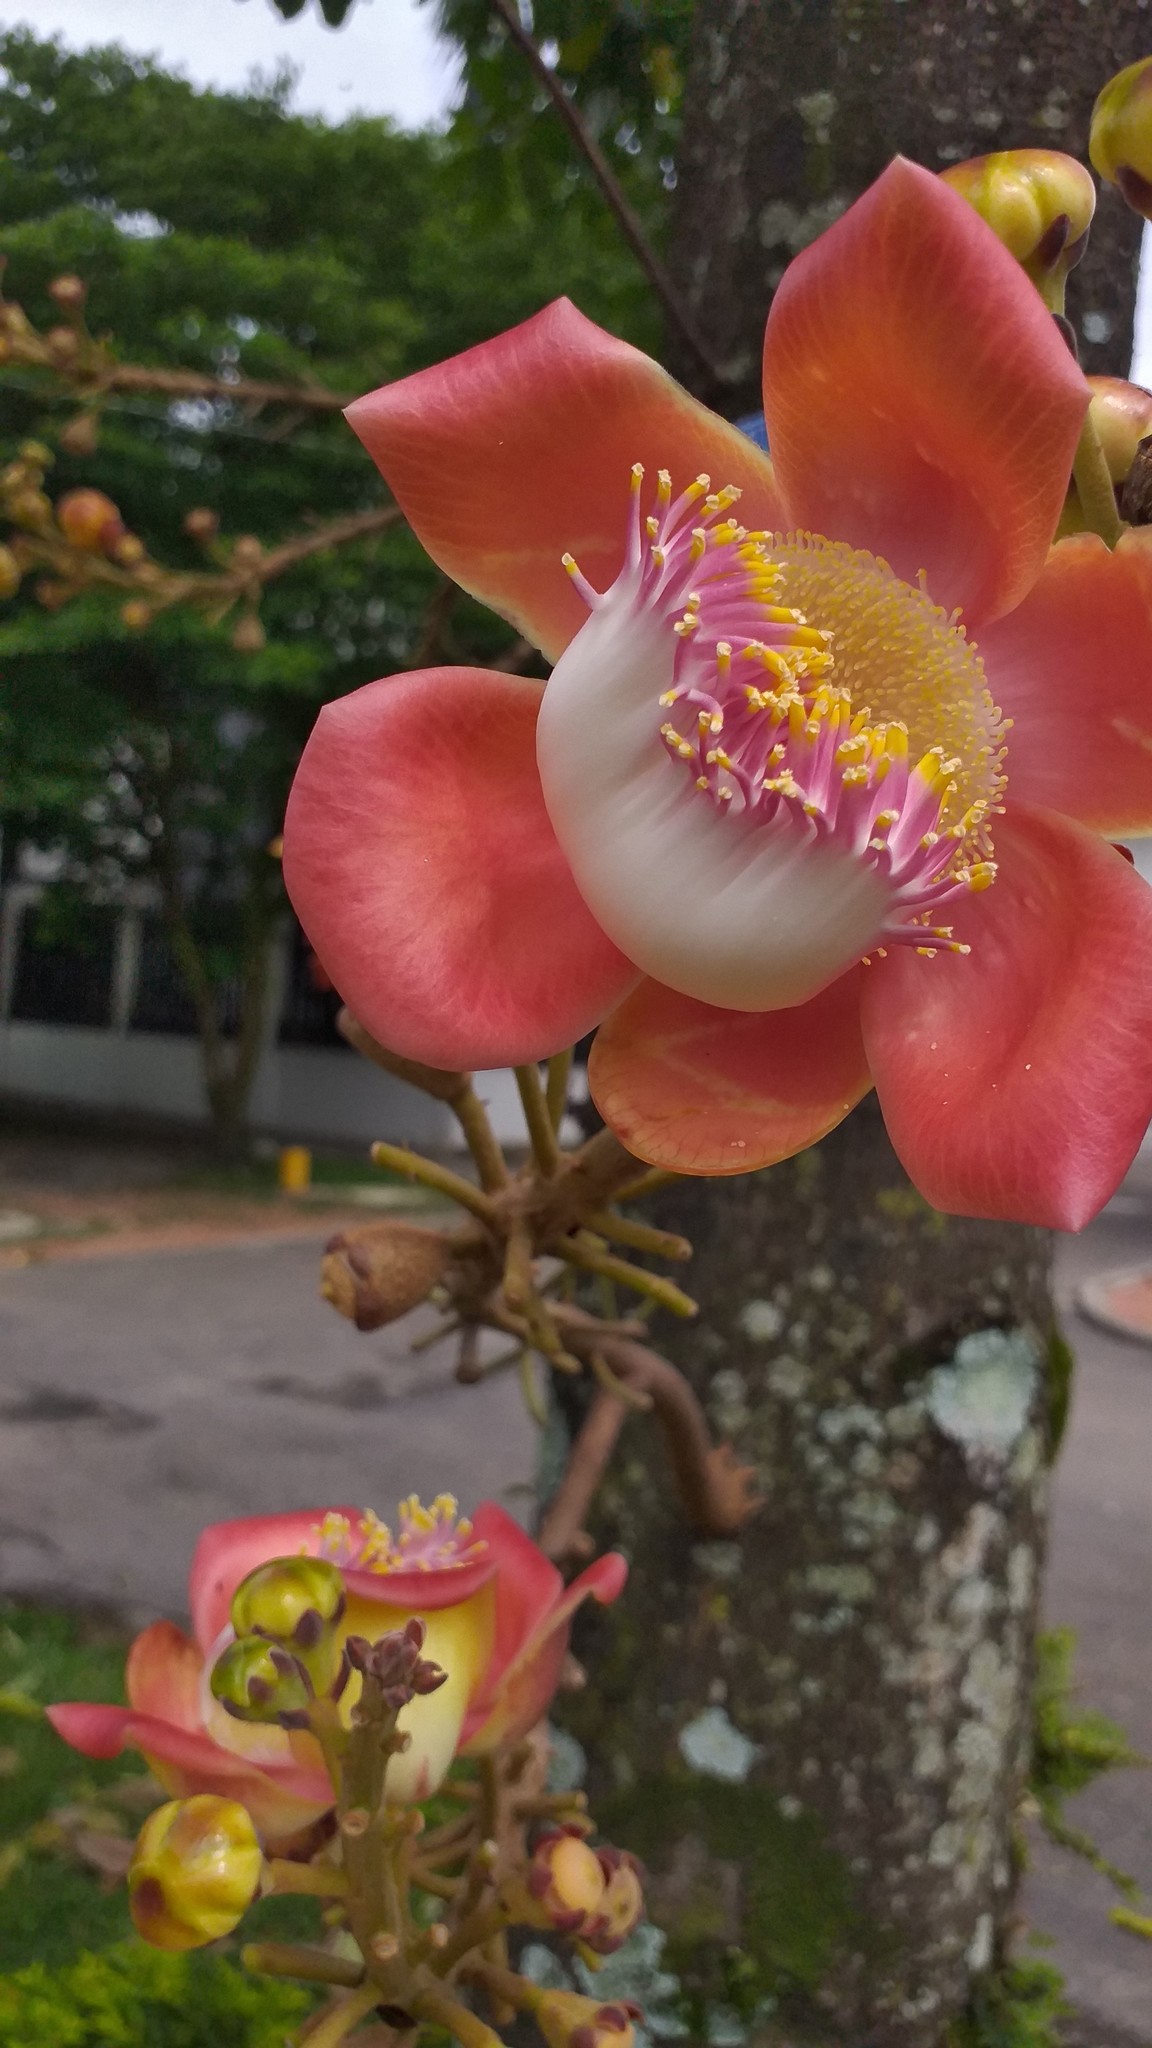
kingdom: Plantae
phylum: Tracheophyta
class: Magnoliopsida
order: Ericales
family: Lecythidaceae
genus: Couroupita
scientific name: Couroupita guianensis
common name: Cannonball tree
